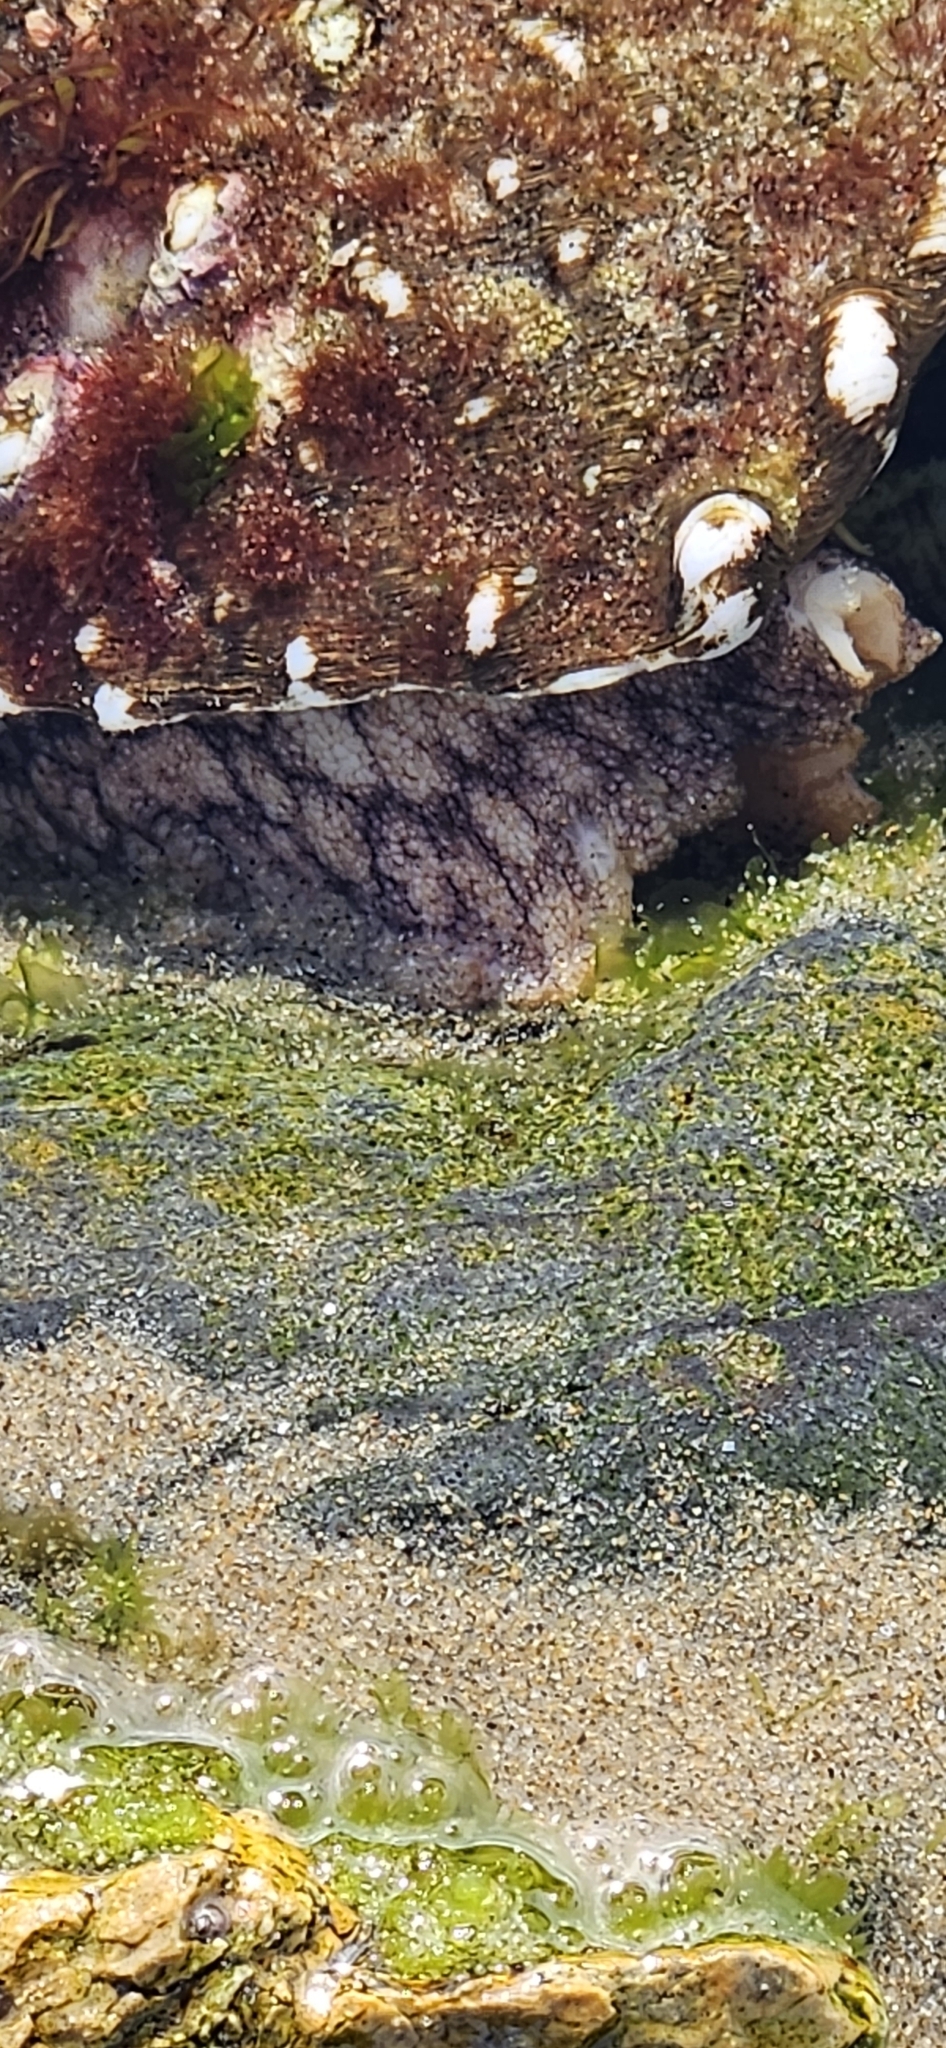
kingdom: Animalia
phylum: Mollusca
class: Gastropoda
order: Trochida
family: Turbinidae
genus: Megastraea
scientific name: Megastraea undosa
